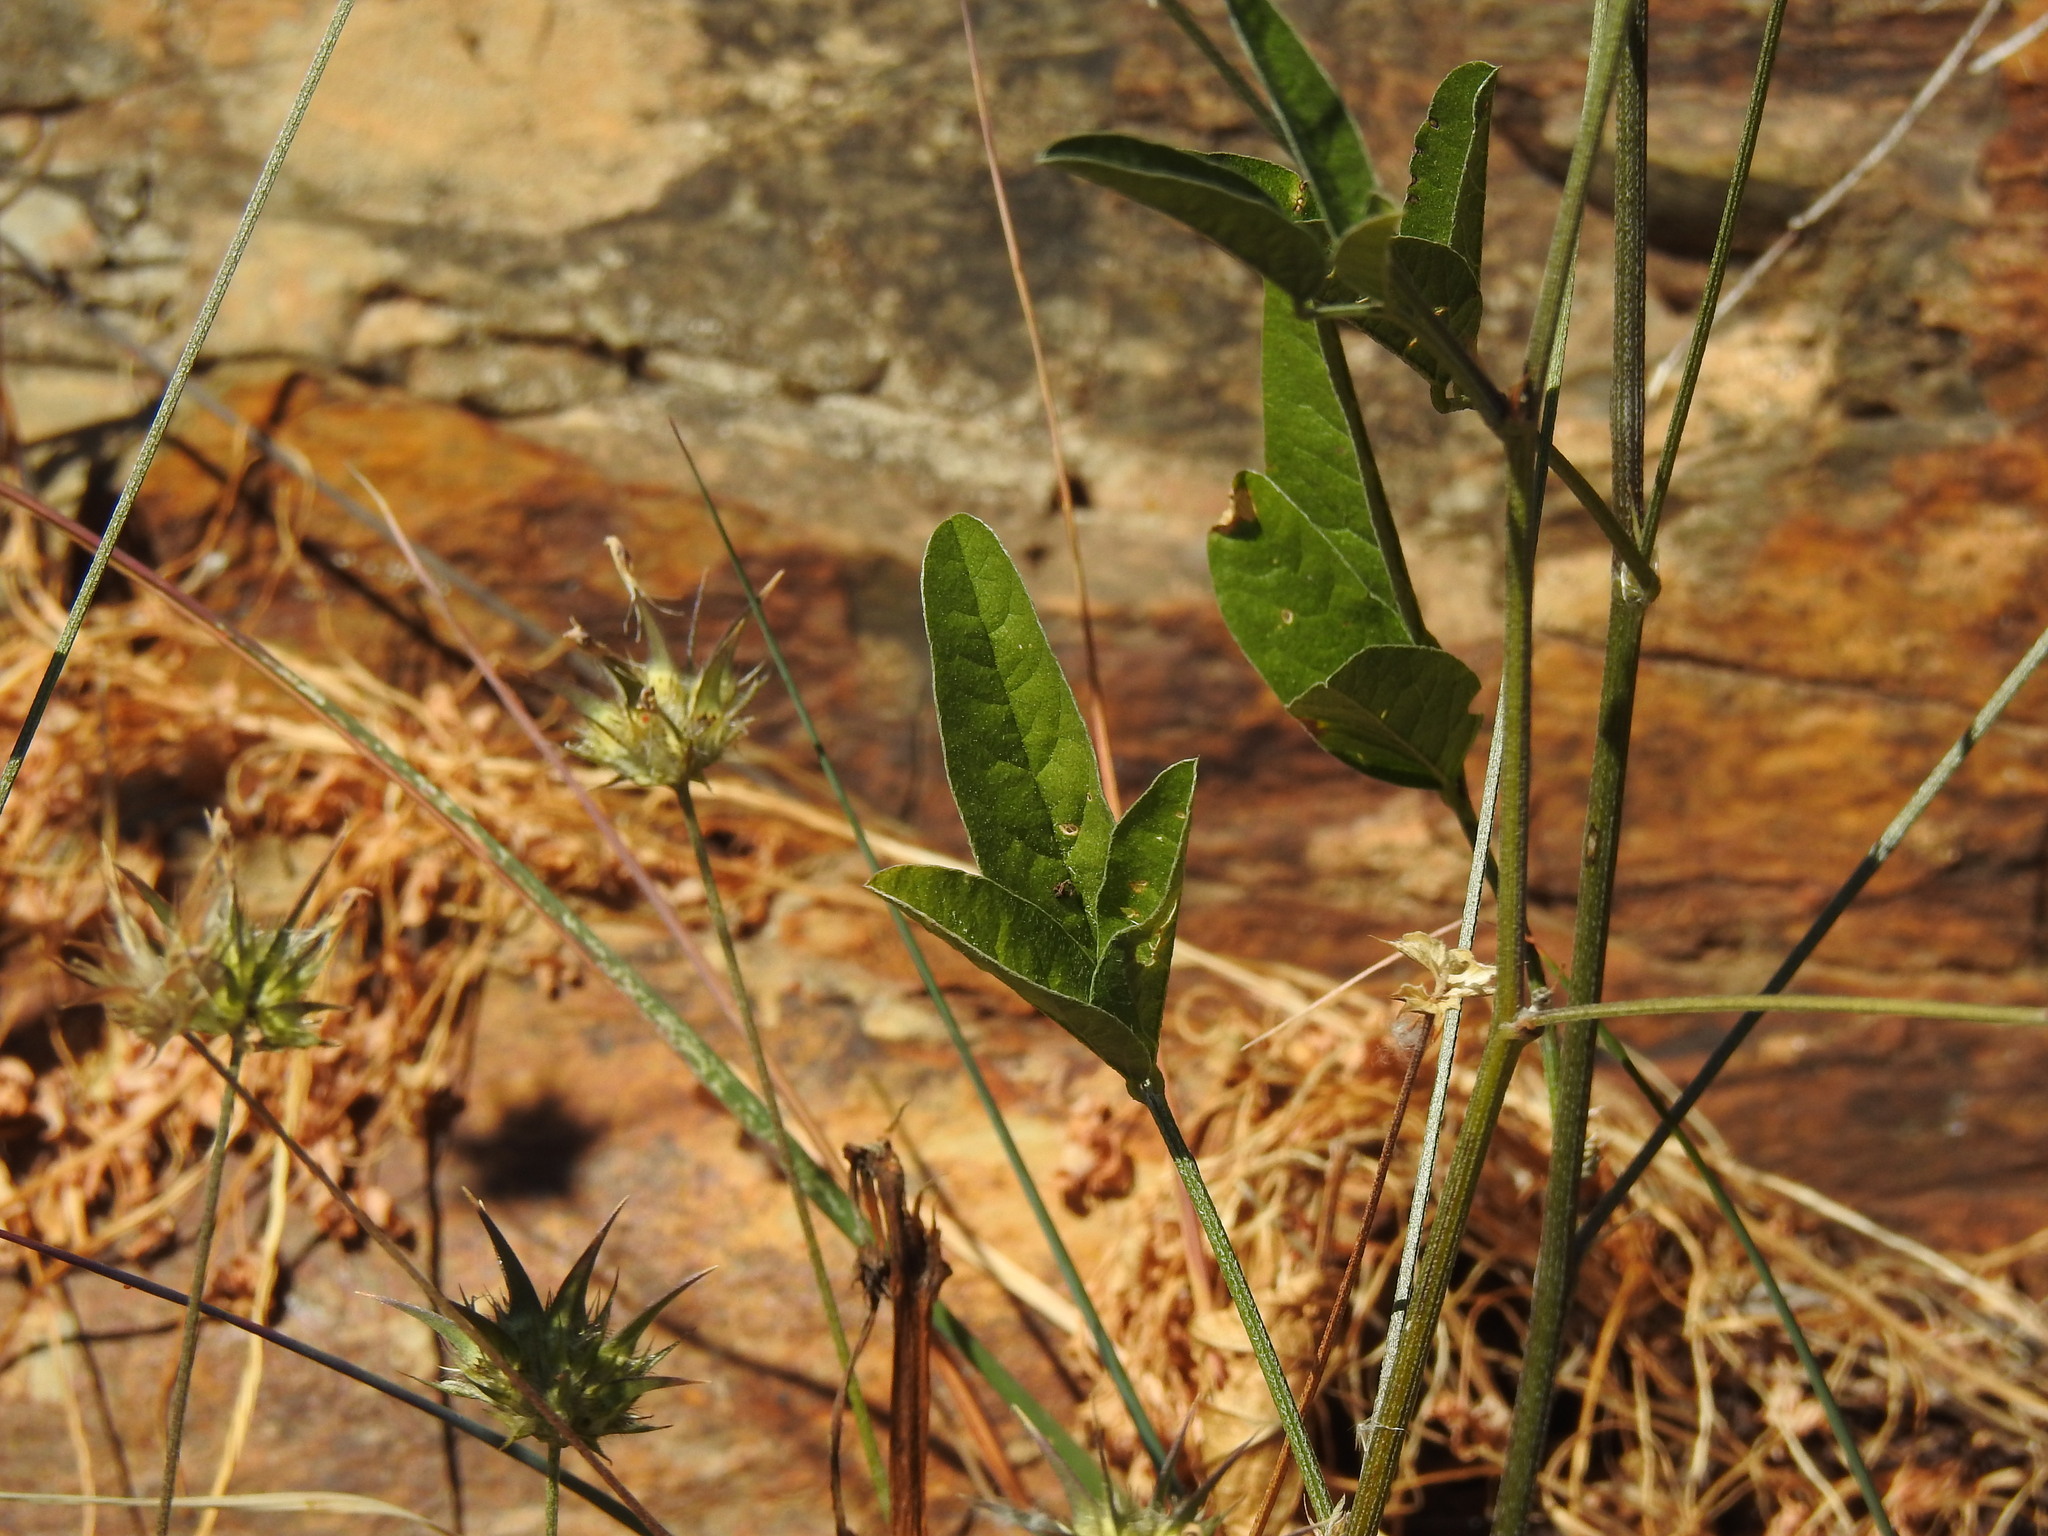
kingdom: Plantae
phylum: Tracheophyta
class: Magnoliopsida
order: Fabales
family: Fabaceae
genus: Bituminaria
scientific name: Bituminaria bituminosa
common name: Arabian pea
